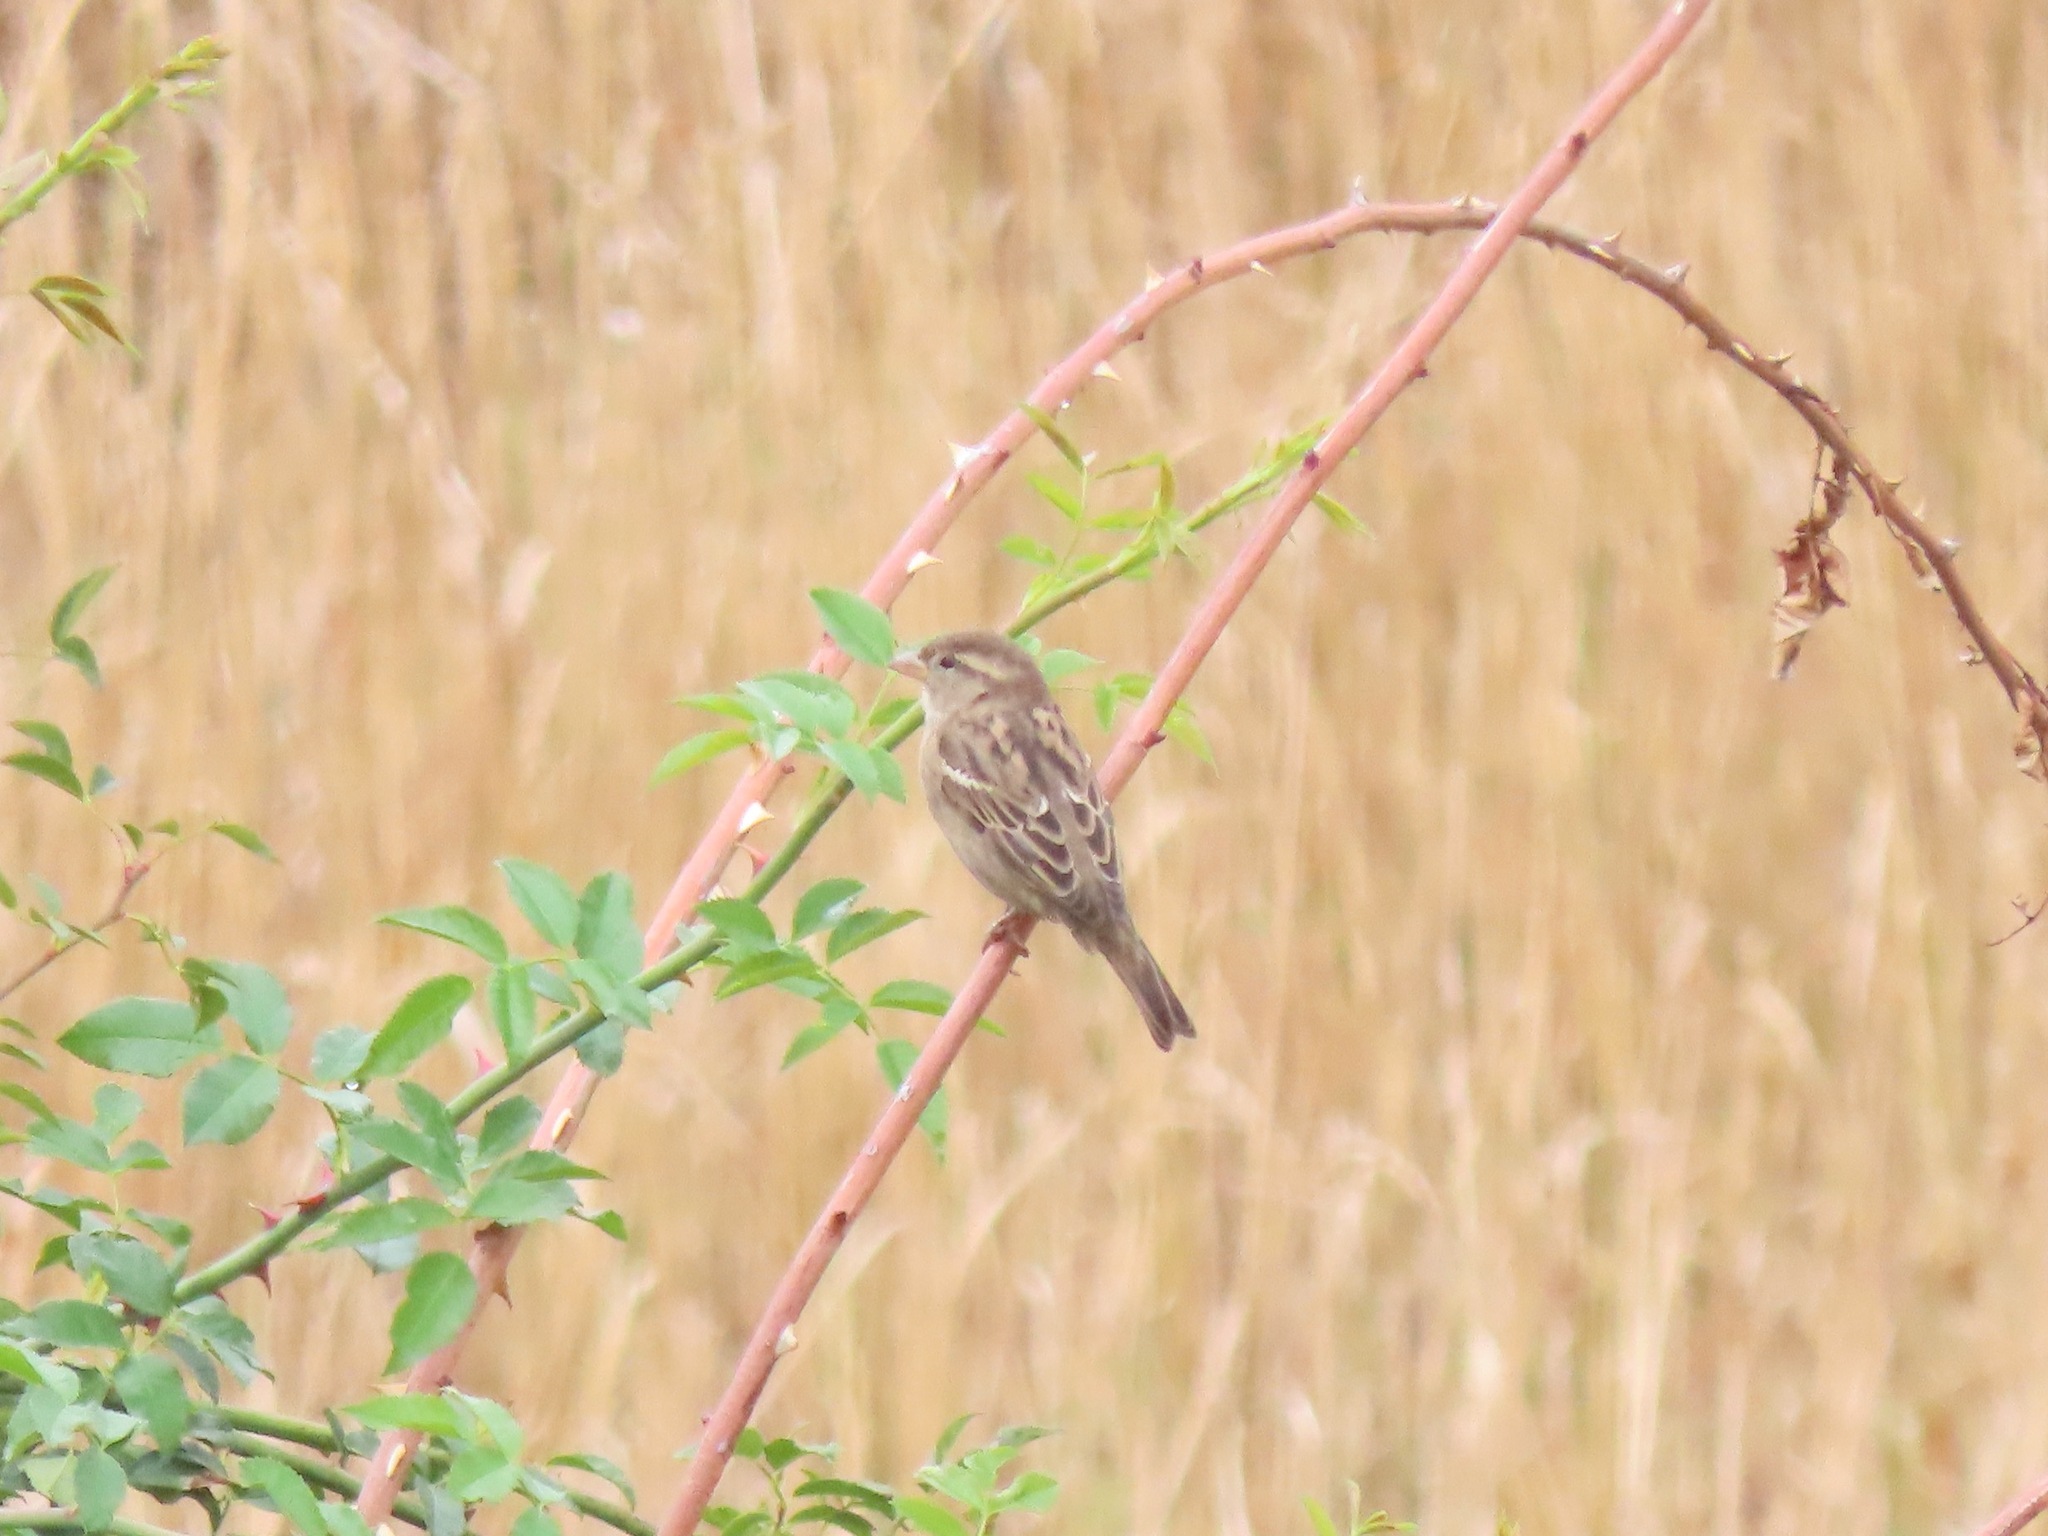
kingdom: Animalia
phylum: Chordata
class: Aves
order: Passeriformes
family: Passeridae
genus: Passer
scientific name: Passer domesticus
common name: House sparrow
